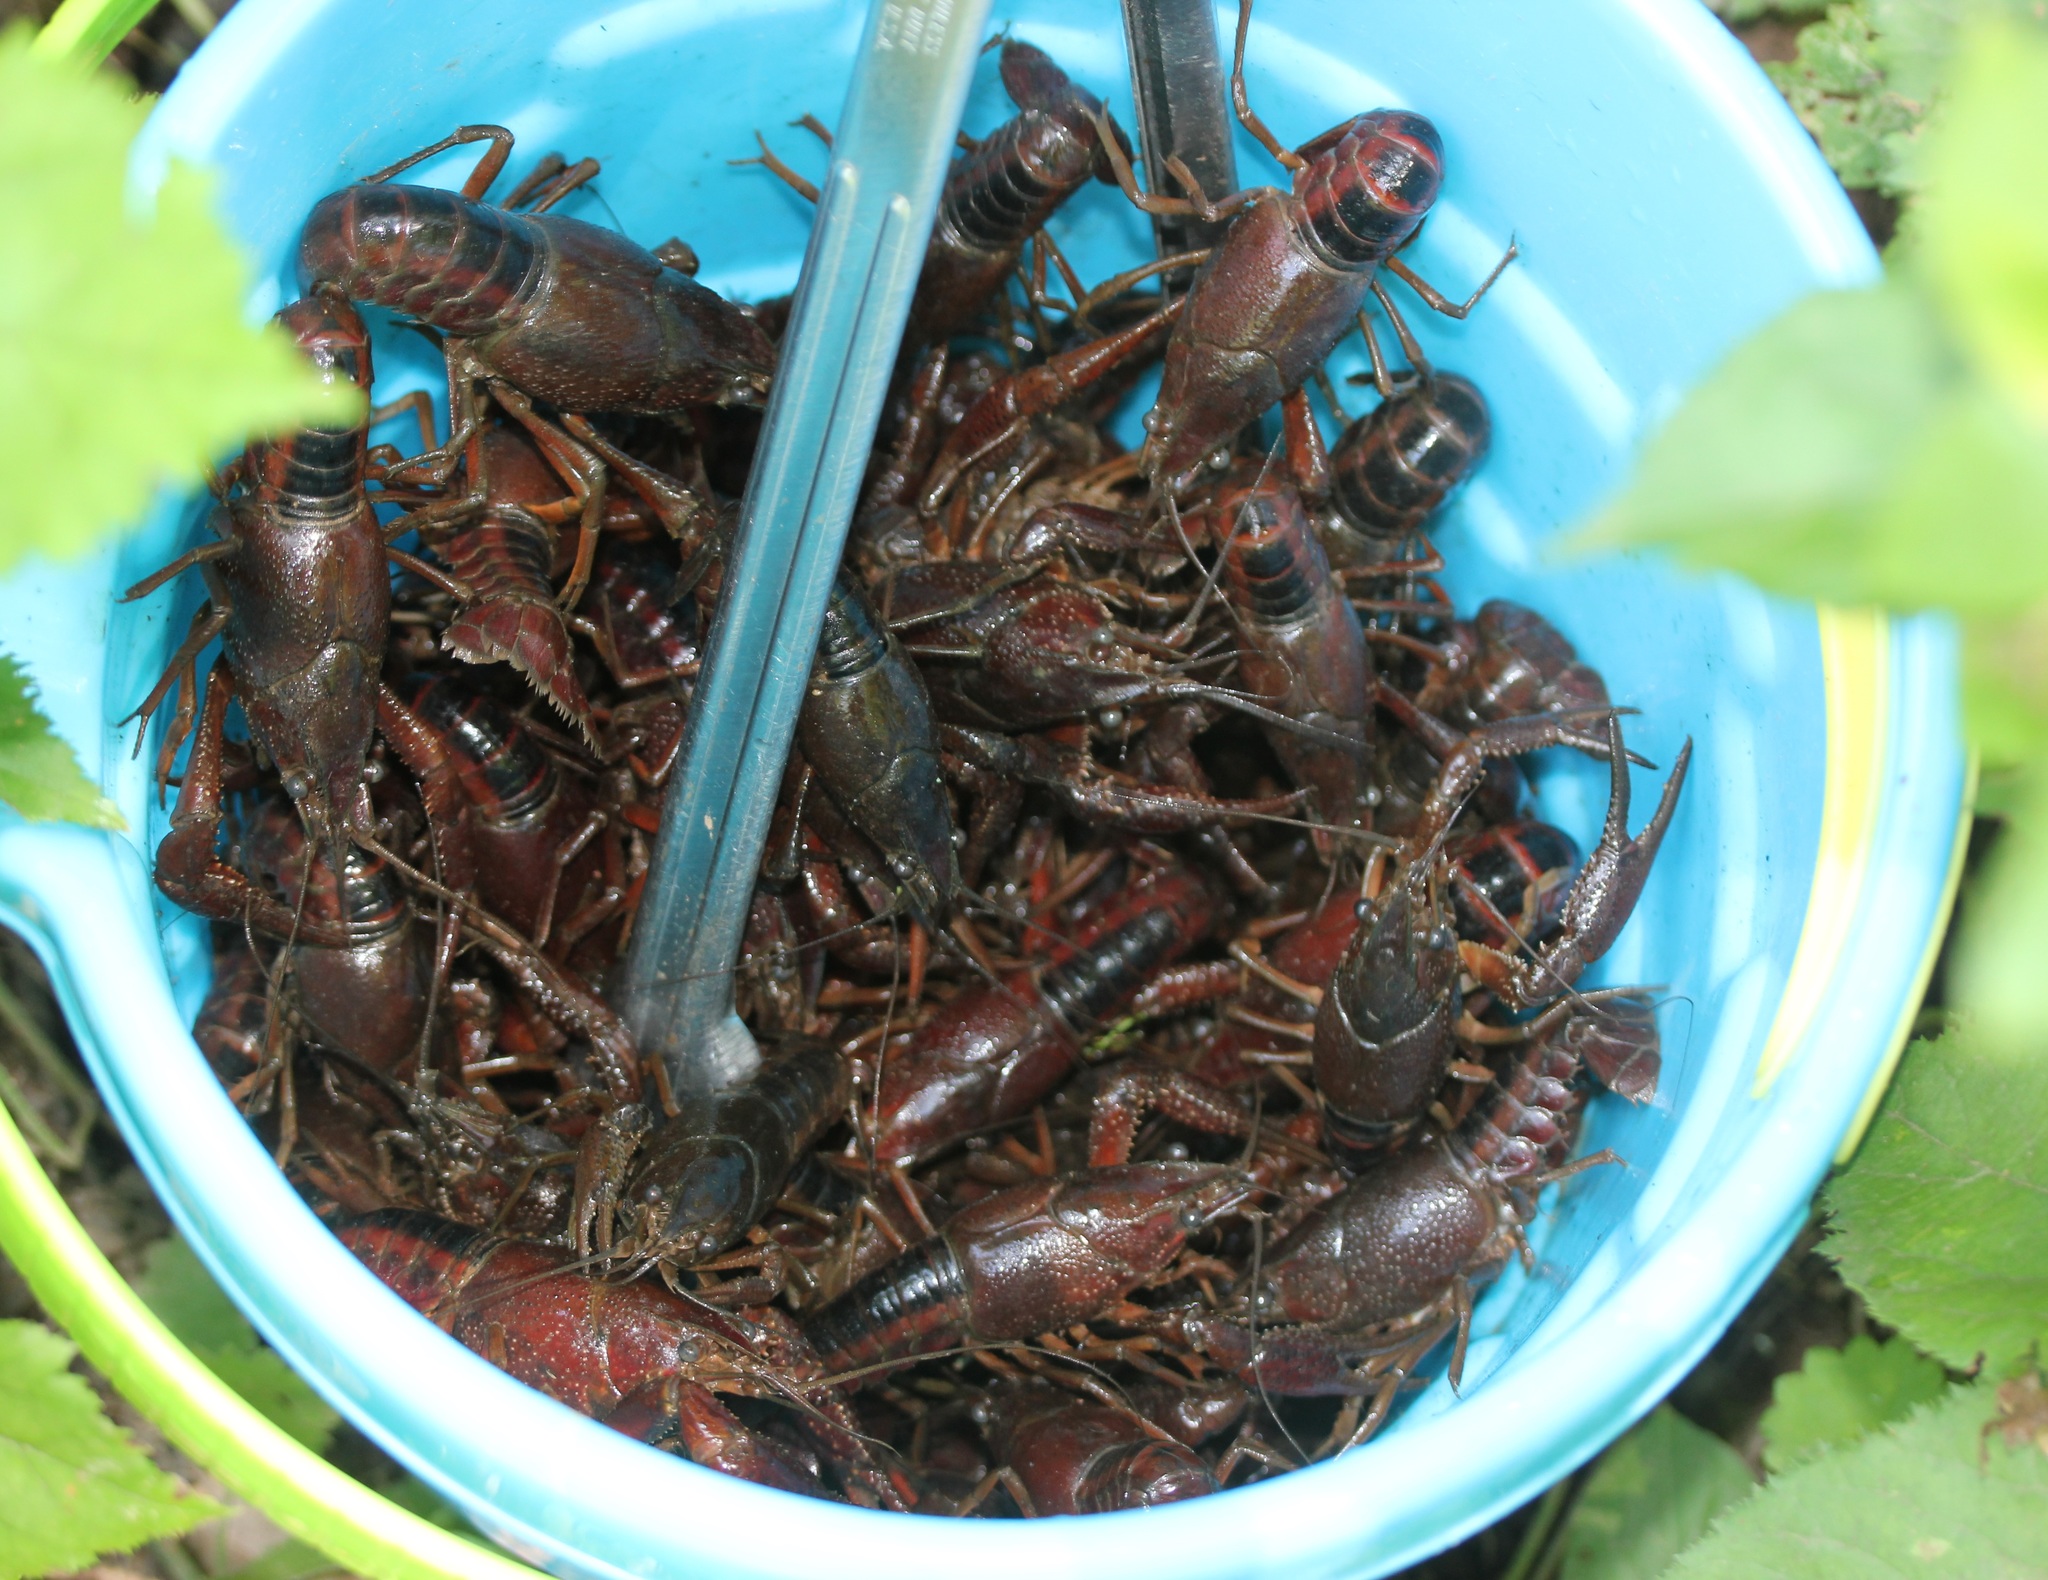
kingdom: Animalia
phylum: Arthropoda
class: Malacostraca
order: Decapoda
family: Cambaridae
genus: Procambarus
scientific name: Procambarus acutus
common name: White river crayfish
